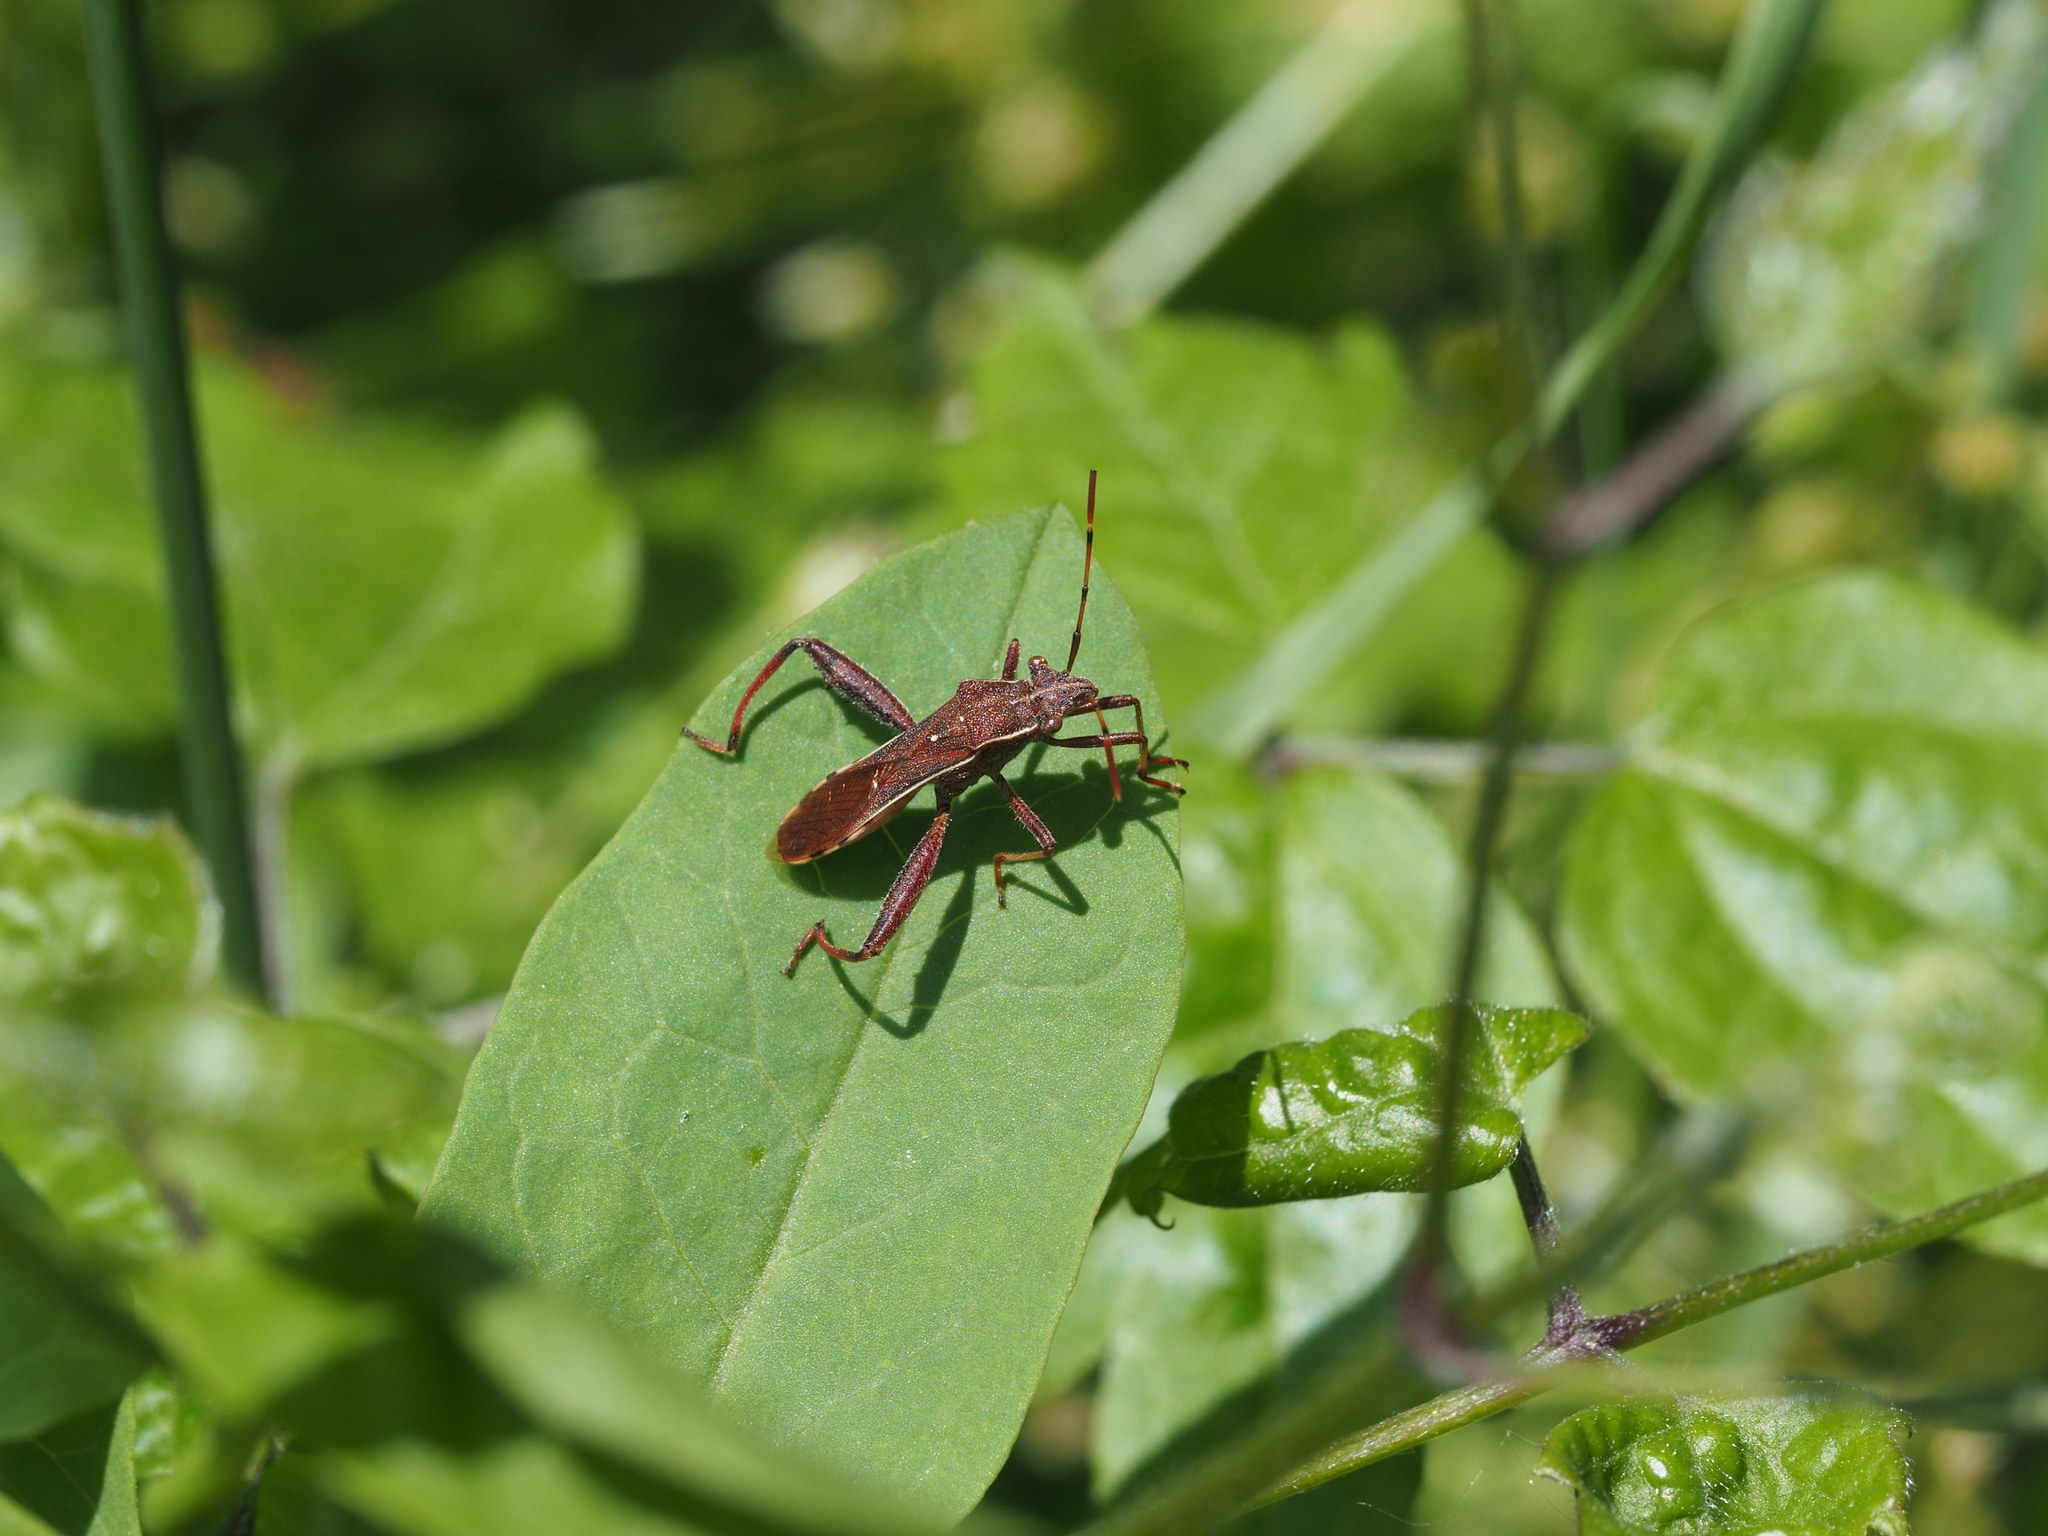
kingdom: Animalia
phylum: Arthropoda
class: Insecta
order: Hemiptera
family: Alydidae
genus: Camptopus
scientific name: Camptopus lateralis
